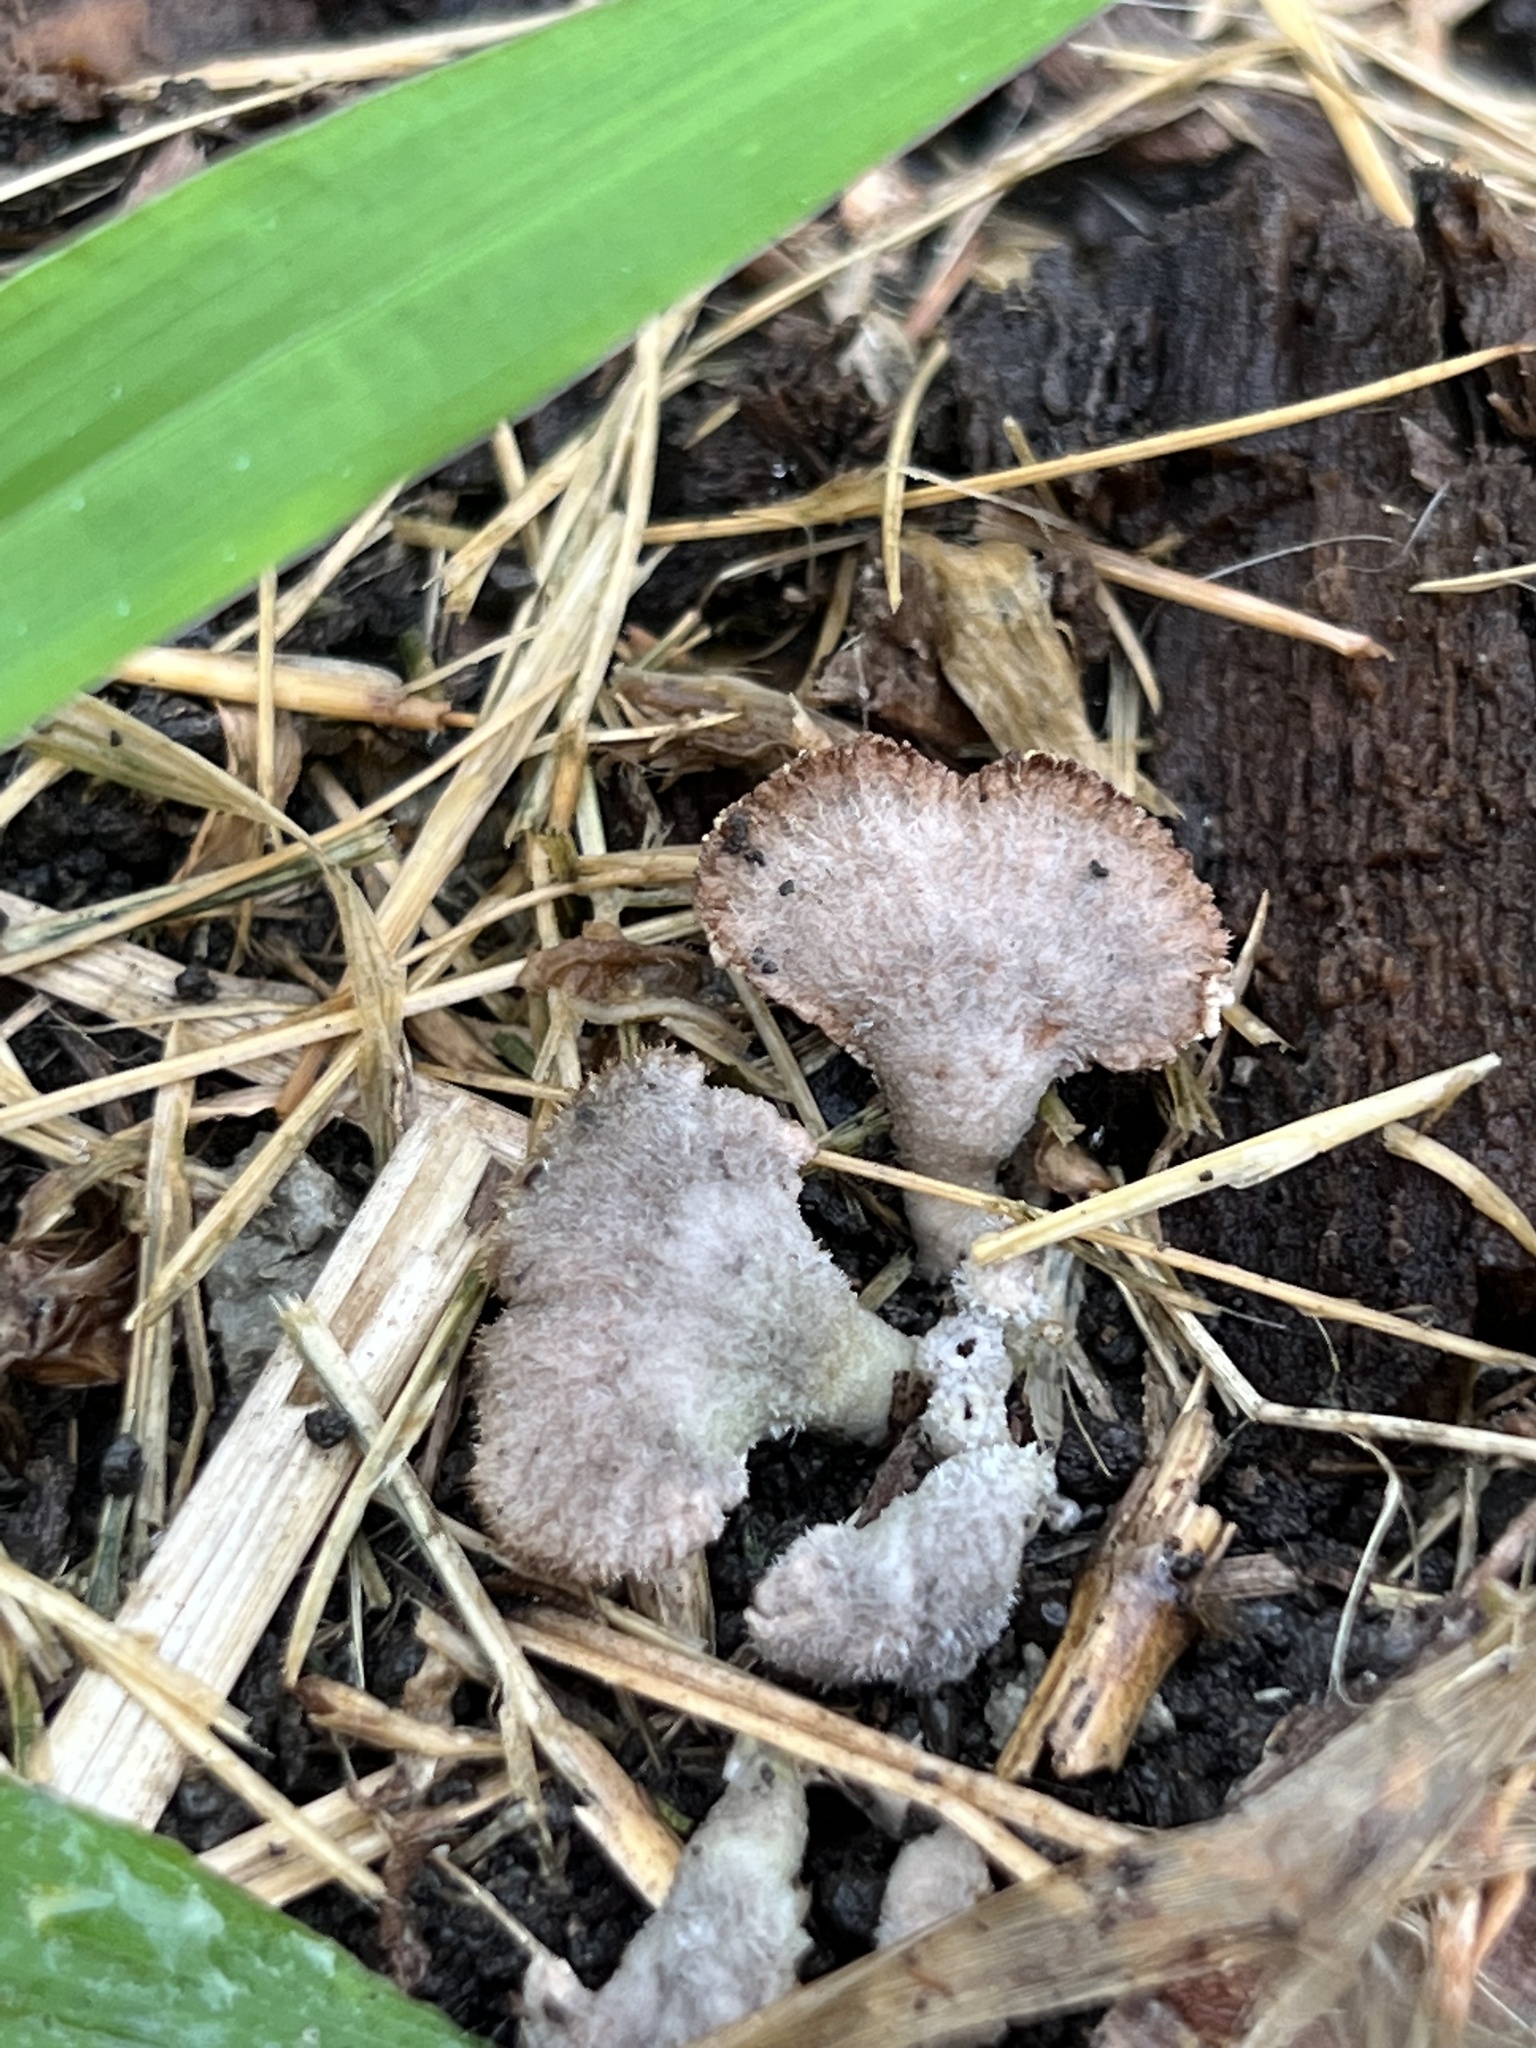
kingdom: Fungi
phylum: Basidiomycota
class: Agaricomycetes
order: Agaricales
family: Schizophyllaceae
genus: Schizophyllum
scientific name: Schizophyllum commune
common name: Common porecrust
